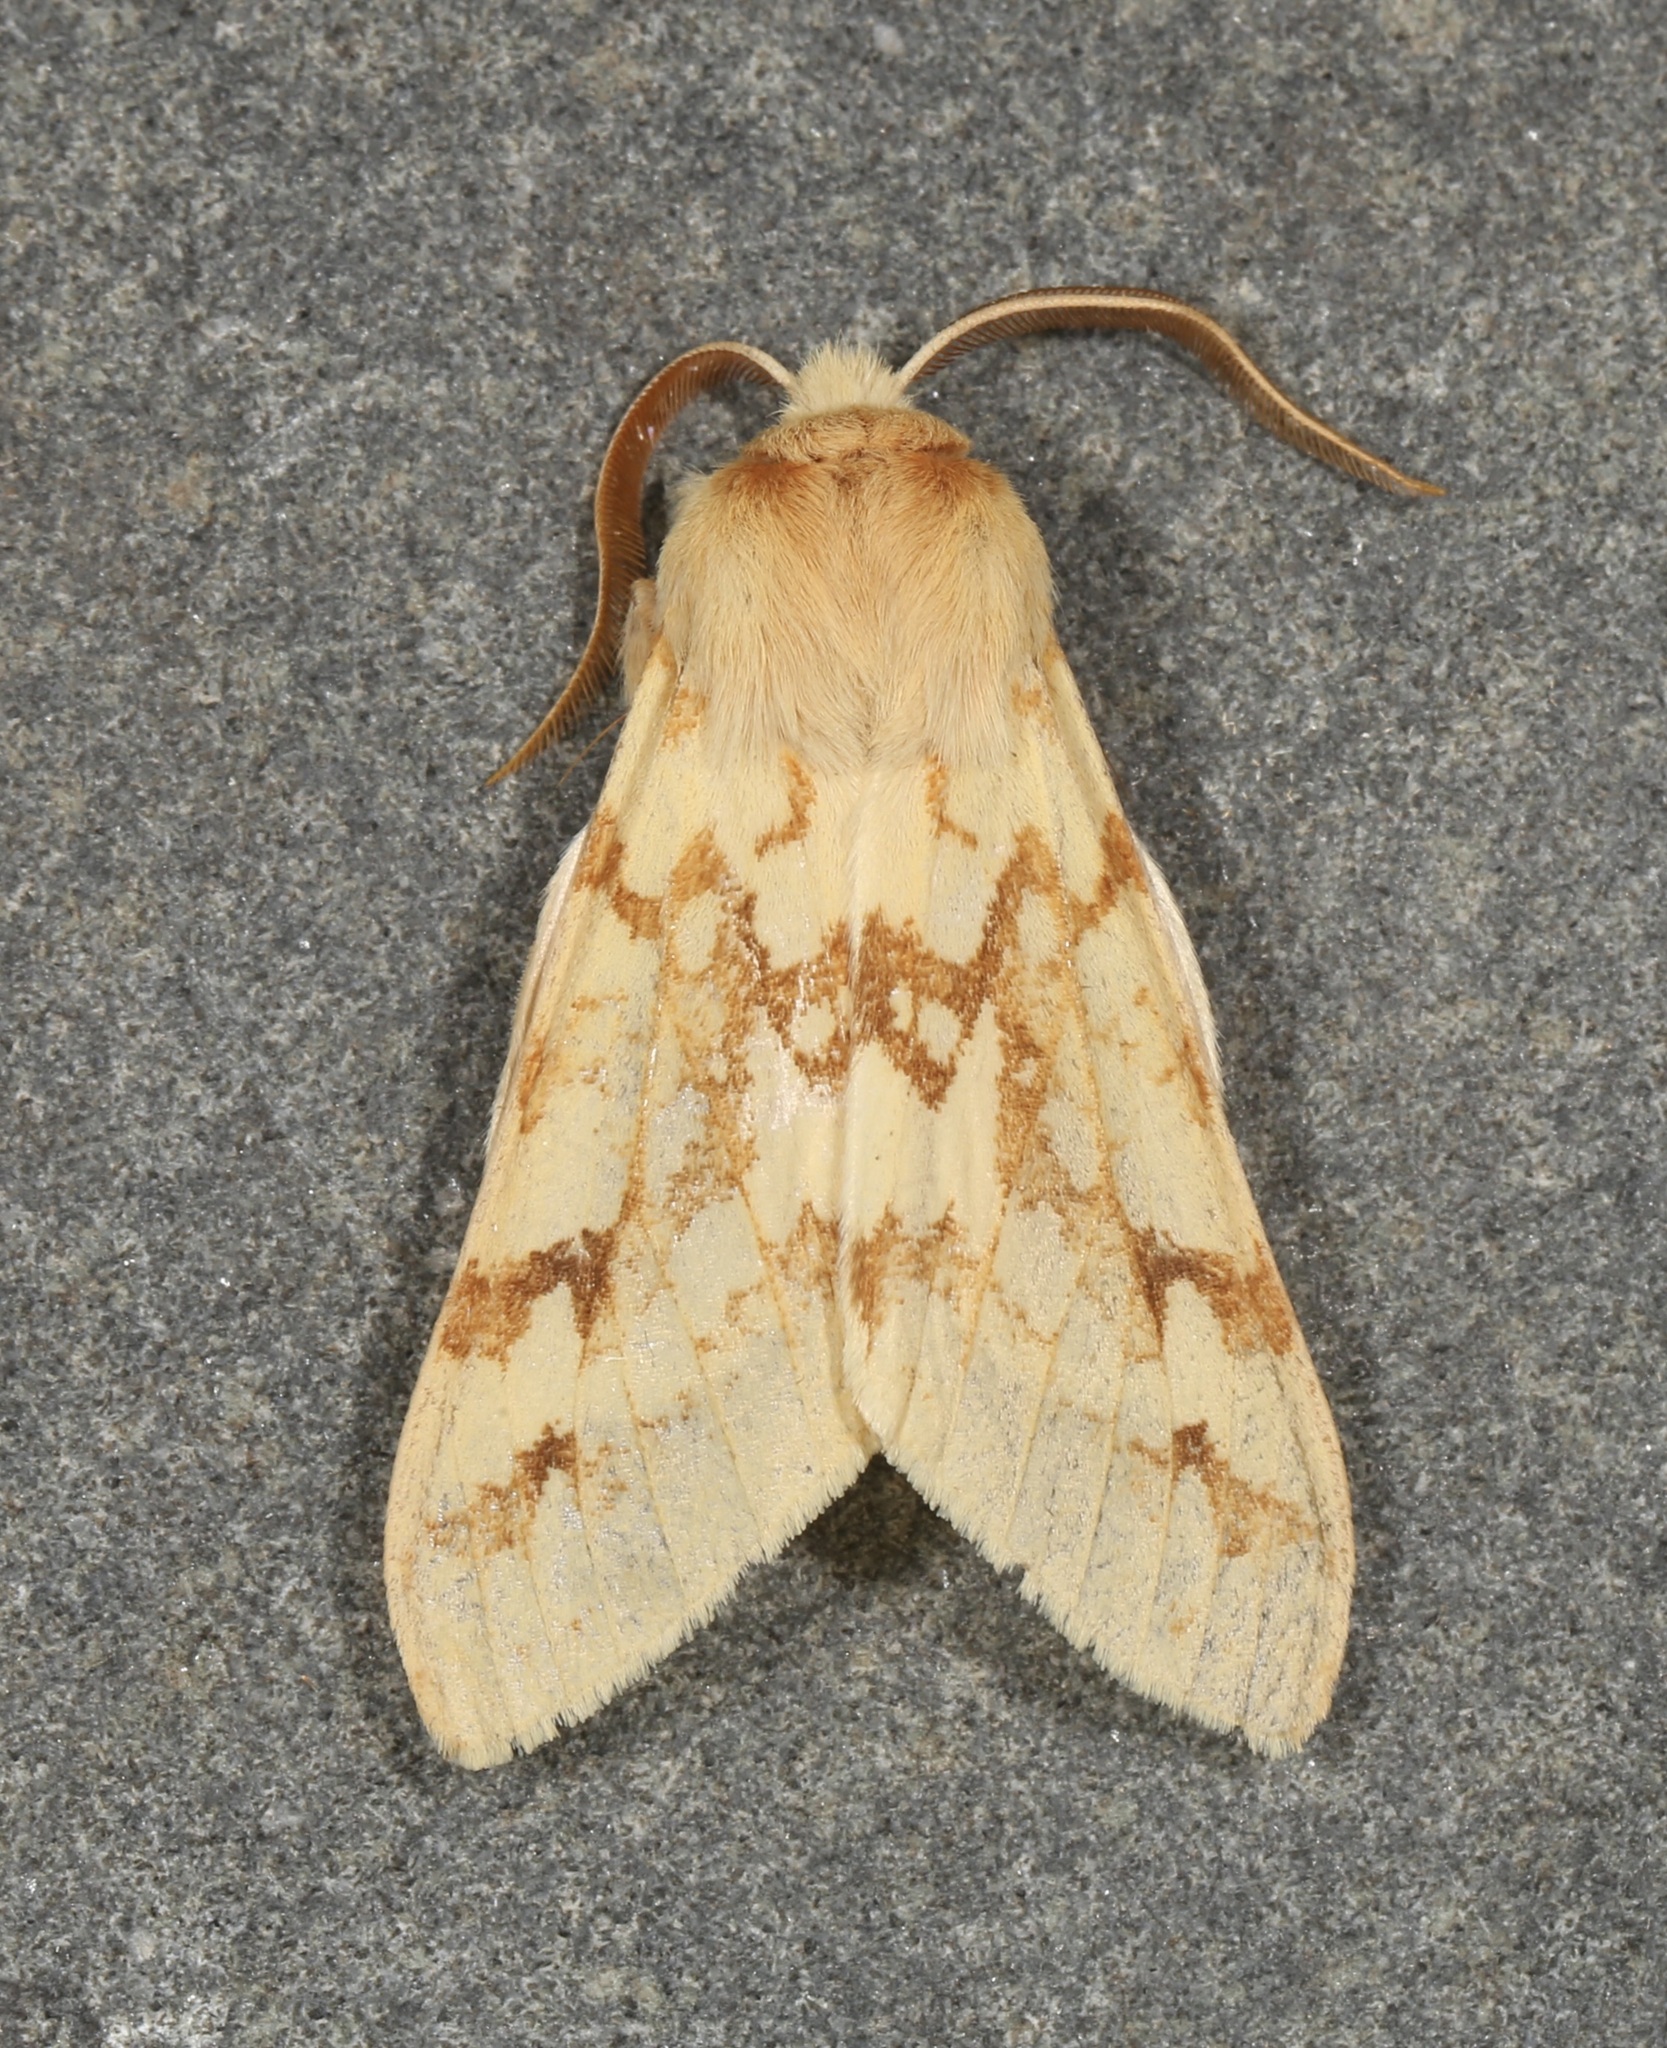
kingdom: Animalia
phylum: Arthropoda
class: Insecta
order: Lepidoptera
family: Erebidae
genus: Lophocampa
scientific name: Lophocampa maculata
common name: Spotted tussock moth
